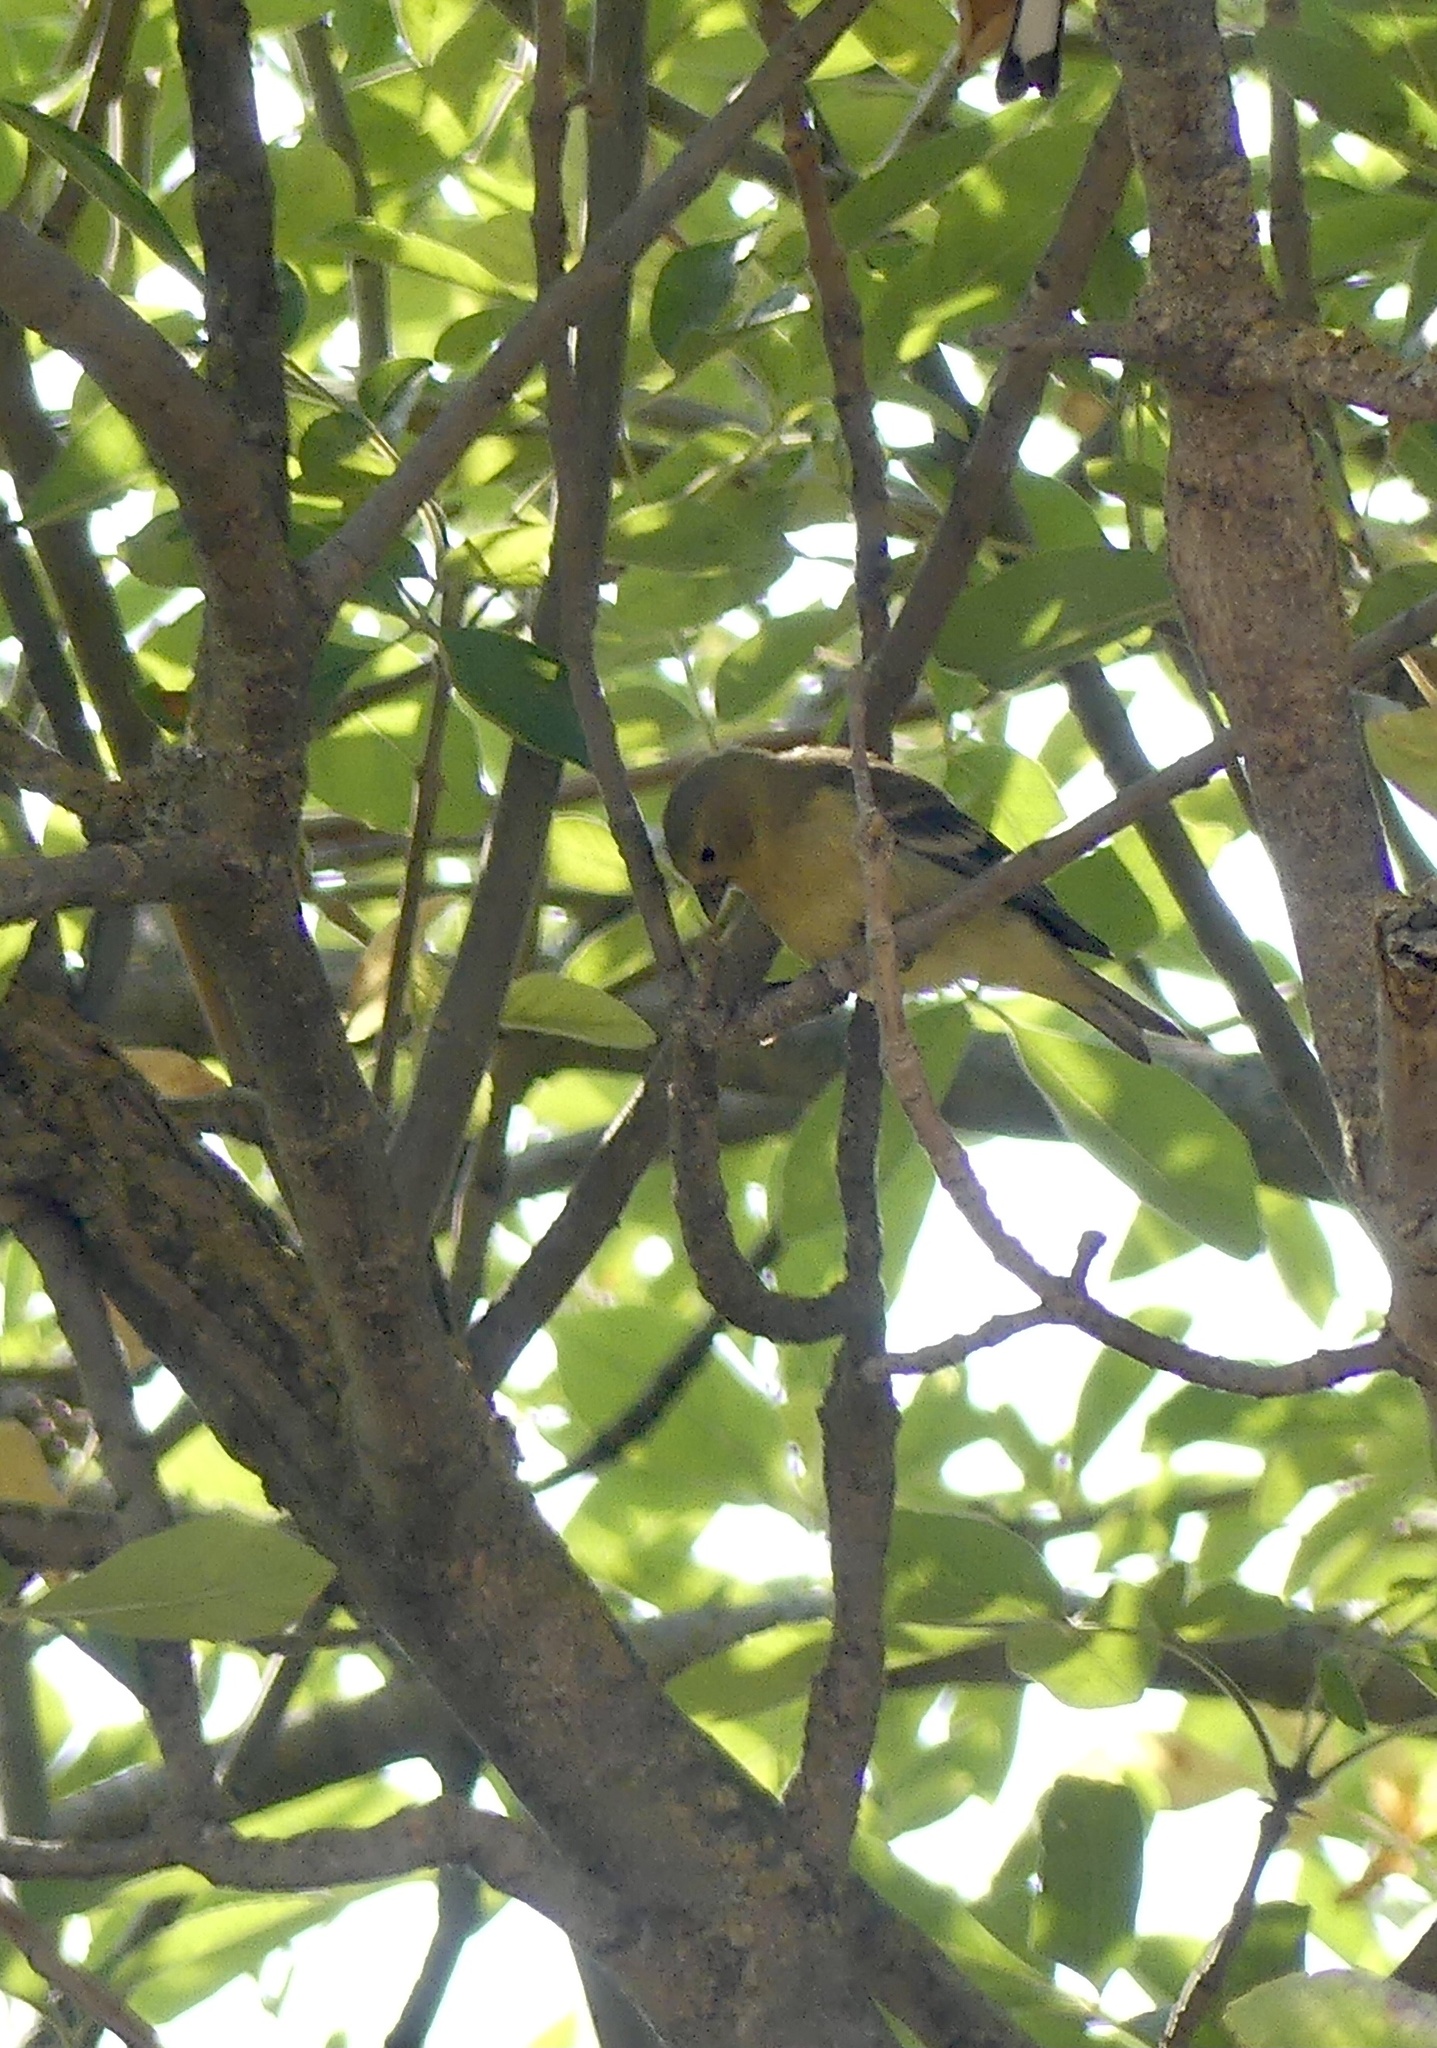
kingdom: Animalia
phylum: Chordata
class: Aves
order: Passeriformes
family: Fringillidae
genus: Spinus
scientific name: Spinus psaltria
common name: Lesser goldfinch
